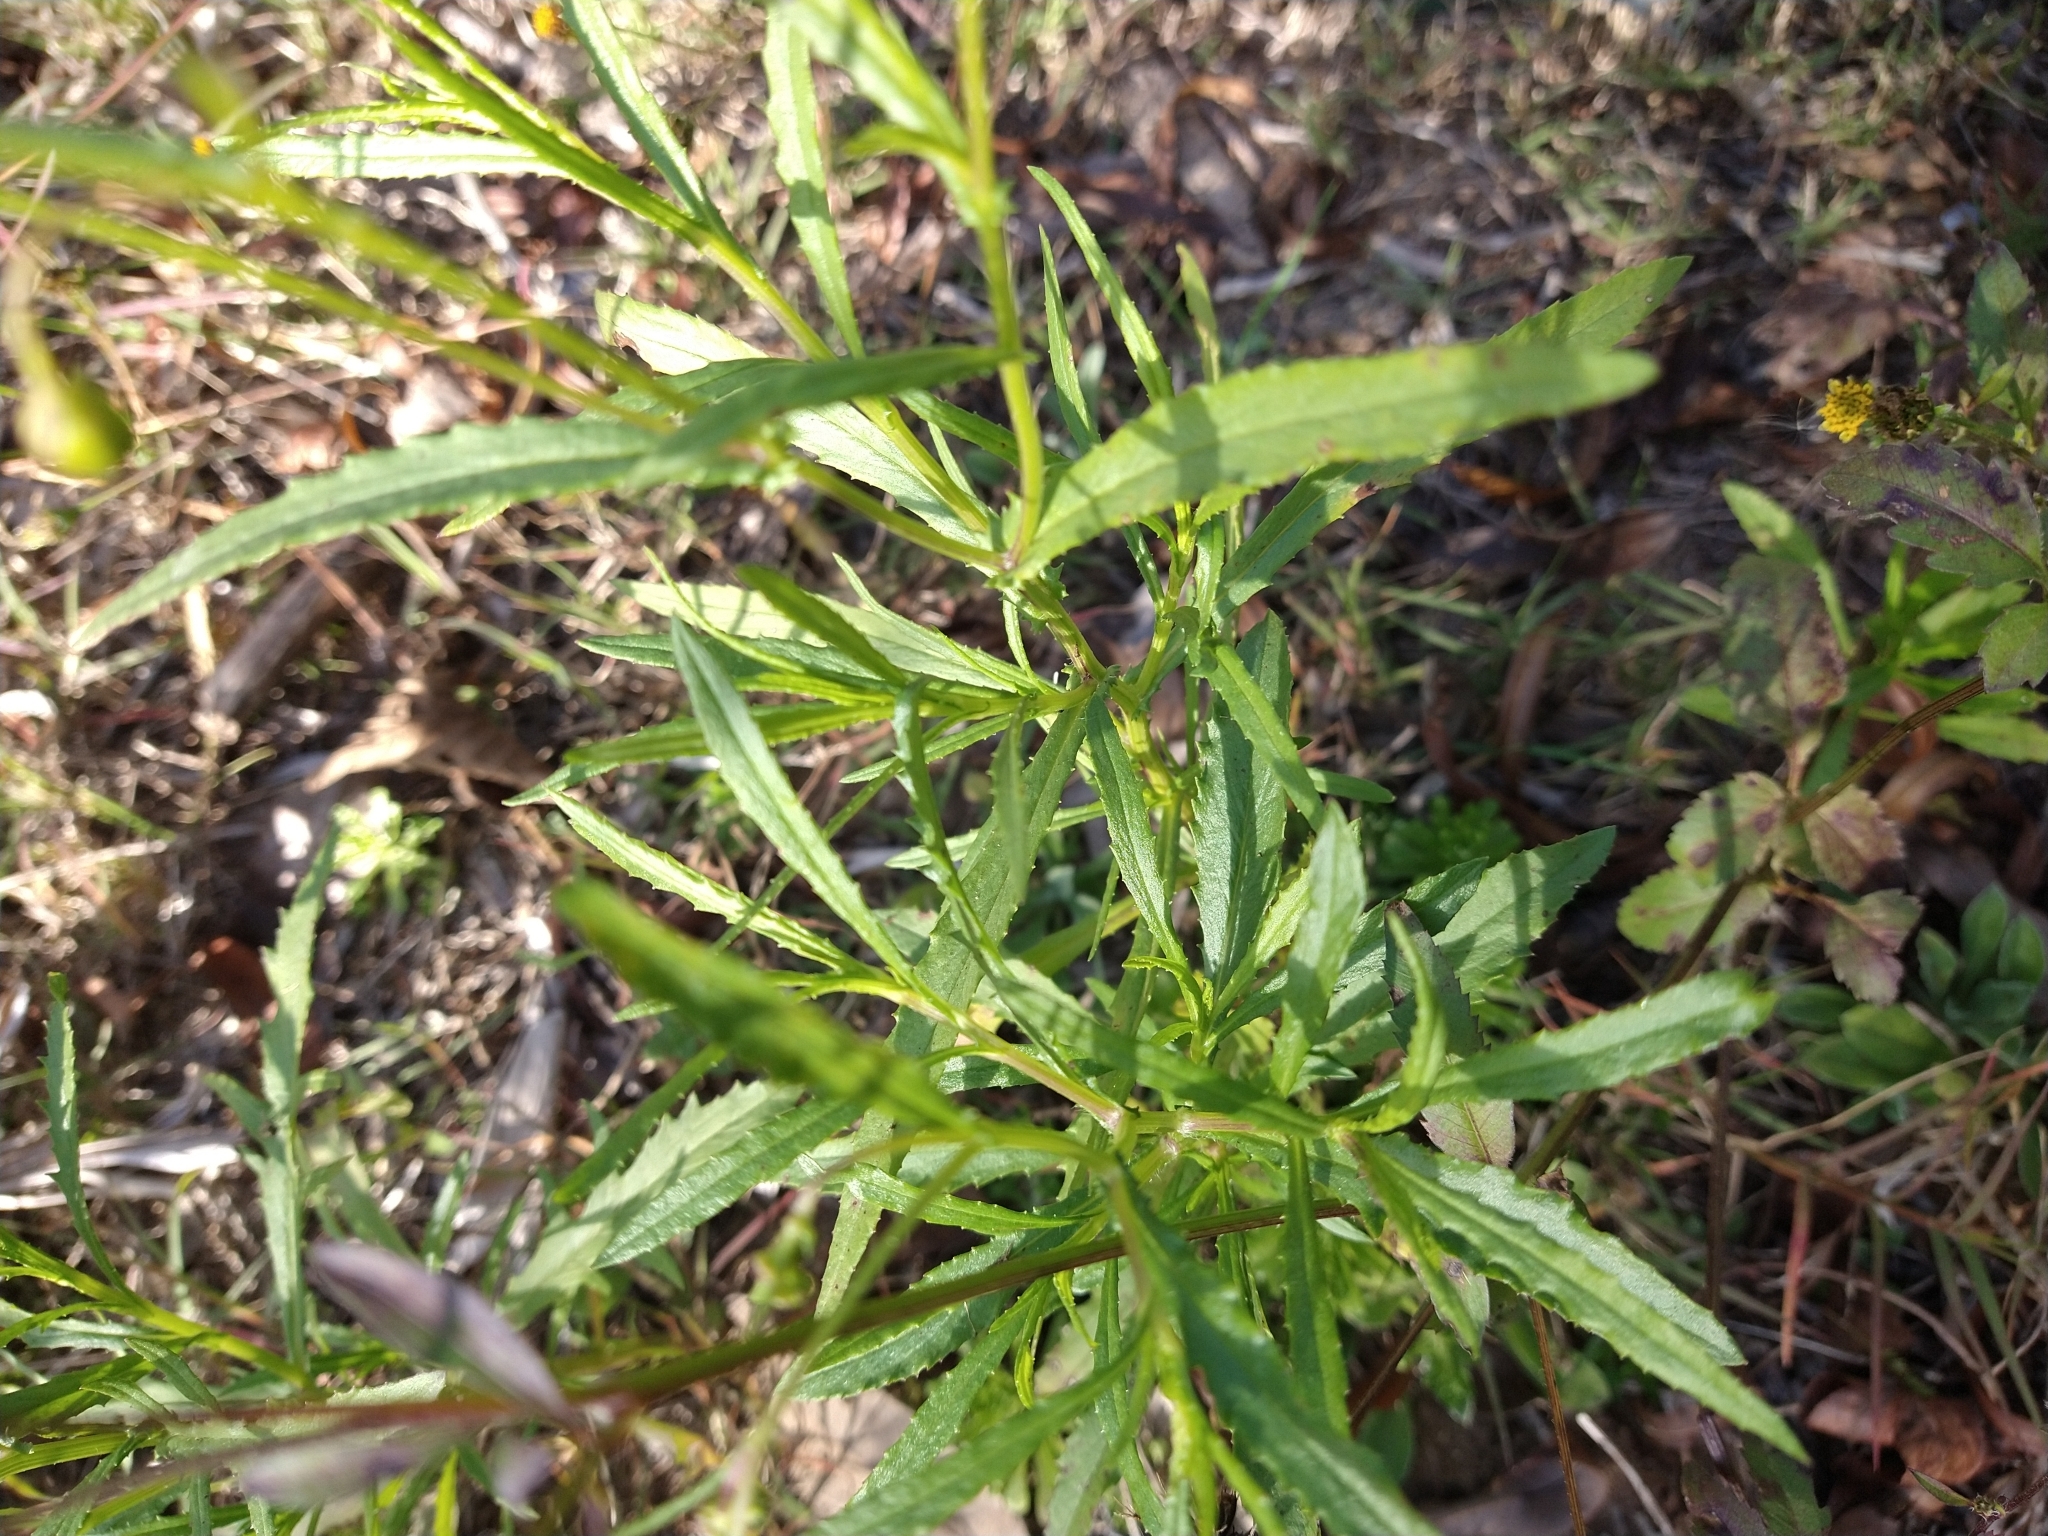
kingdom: Plantae
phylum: Tracheophyta
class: Magnoliopsida
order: Asterales
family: Asteraceae
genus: Senecio
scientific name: Senecio madagascariensis
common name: Madagascar ragwort
